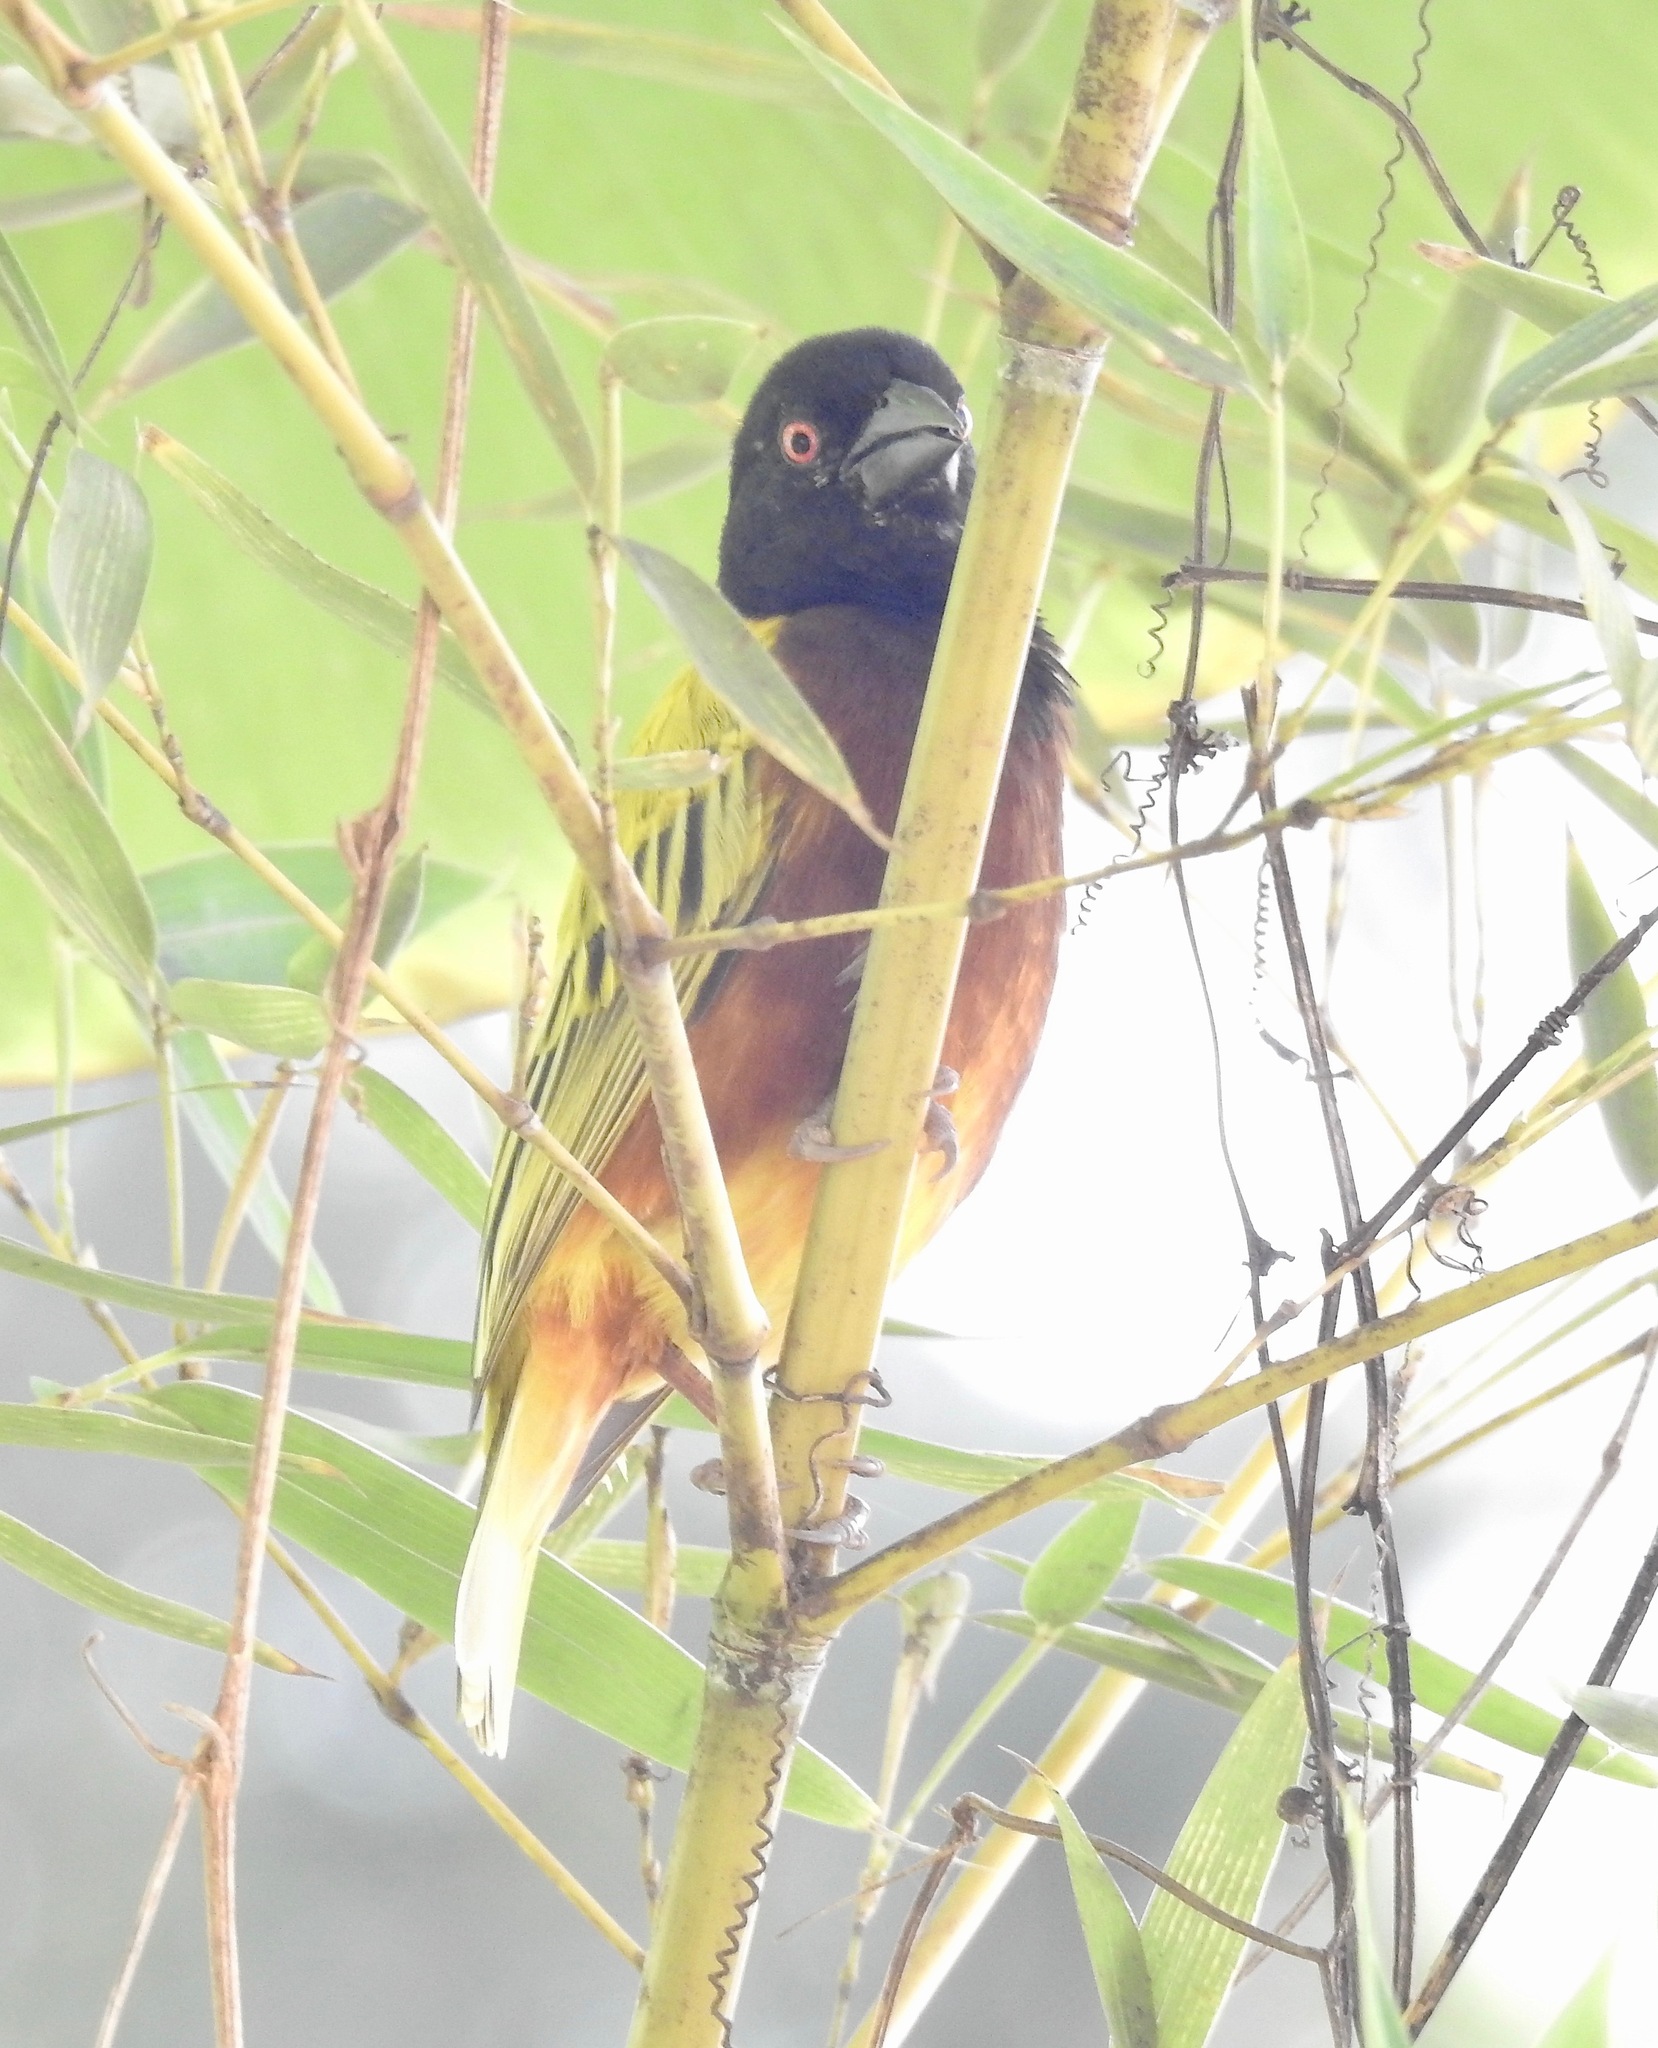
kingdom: Animalia
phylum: Chordata
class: Aves
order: Passeriformes
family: Ploceidae
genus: Ploceus
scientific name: Ploceus jacksoni
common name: Golden-backed weaver
